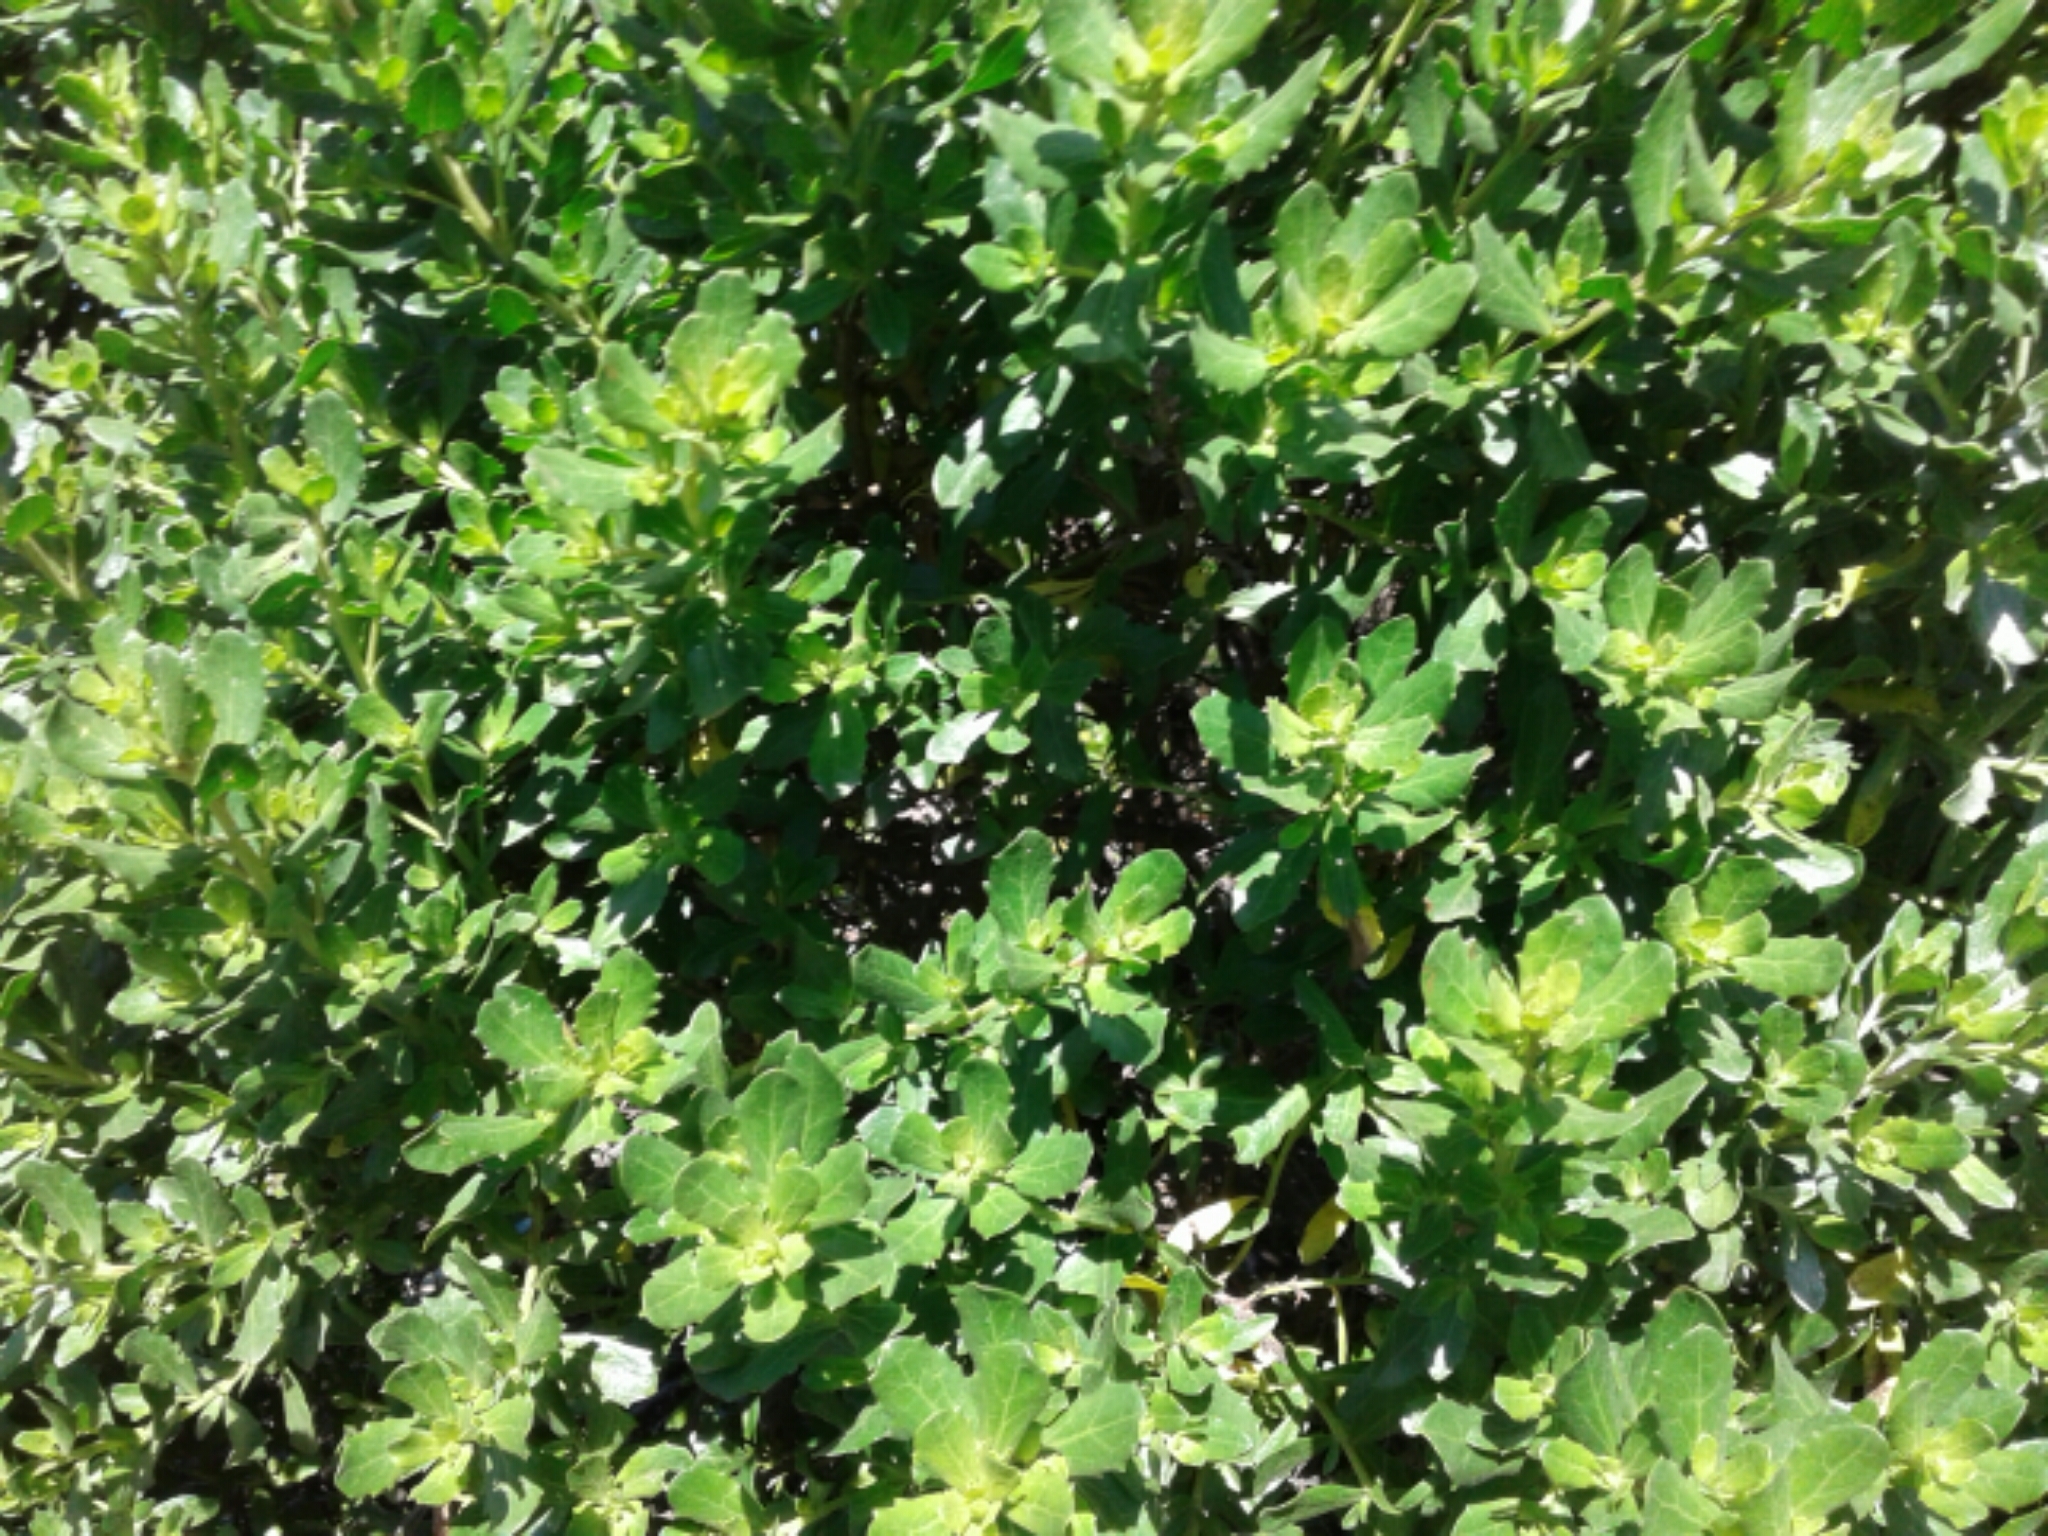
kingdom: Plantae
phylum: Tracheophyta
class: Magnoliopsida
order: Asterales
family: Asteraceae
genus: Baccharis
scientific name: Baccharis pilularis
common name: Coyotebrush
